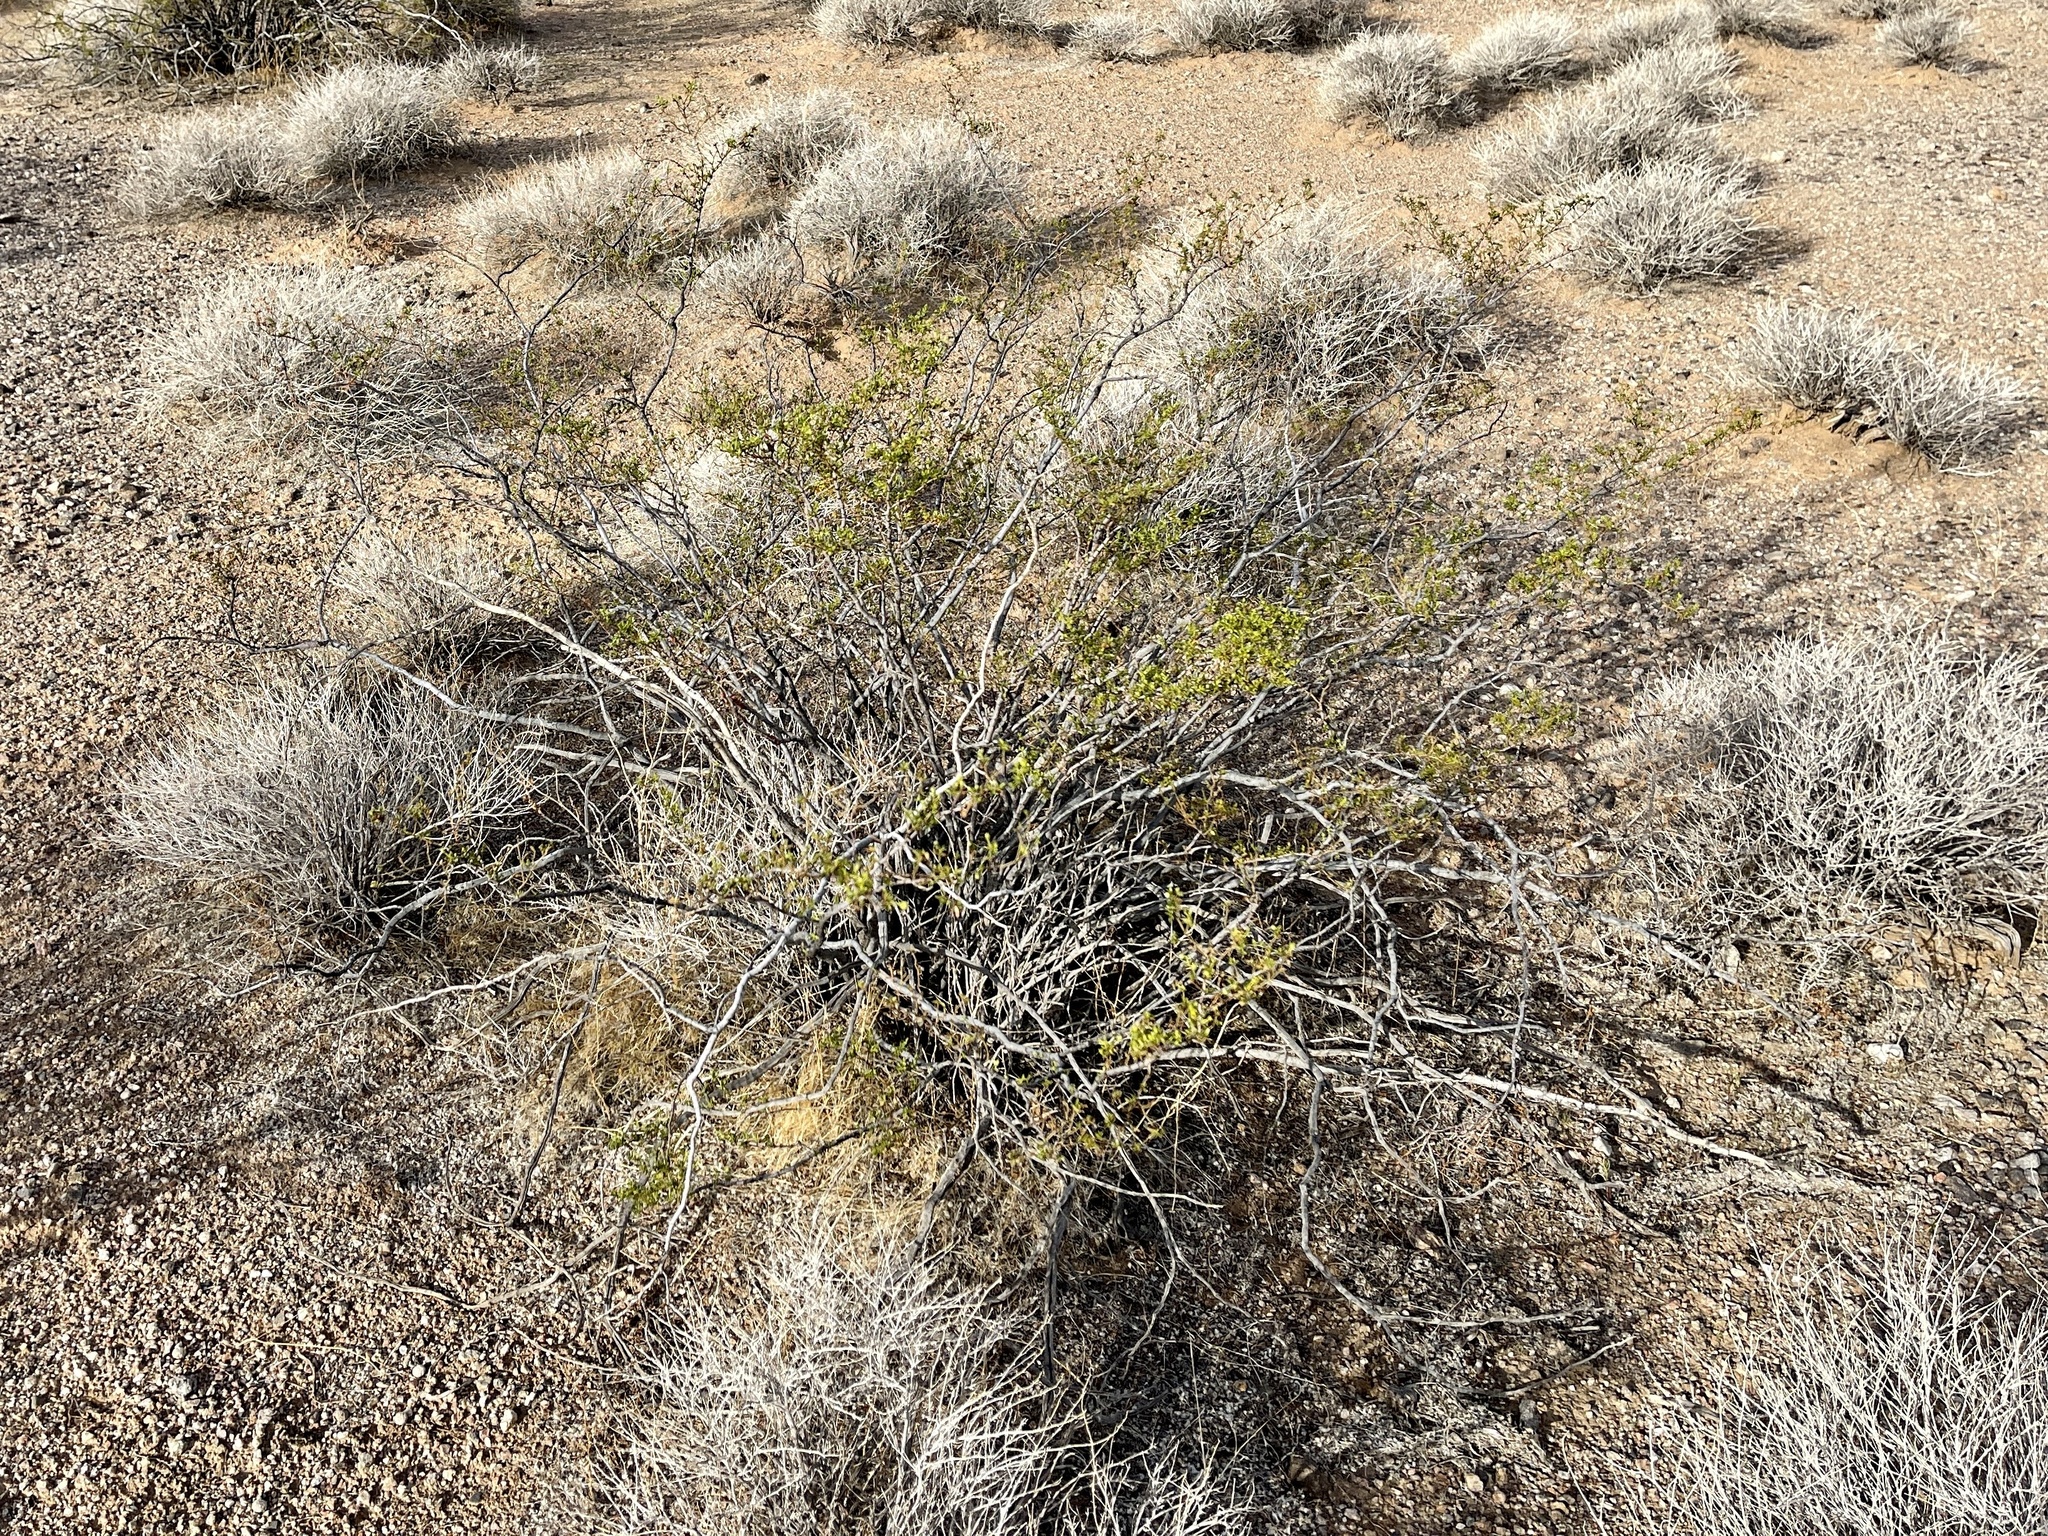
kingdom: Plantae
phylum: Tracheophyta
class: Magnoliopsida
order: Zygophyllales
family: Zygophyllaceae
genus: Larrea
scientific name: Larrea tridentata
